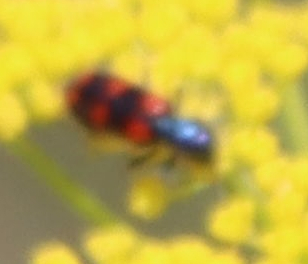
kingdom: Animalia
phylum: Arthropoda
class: Insecta
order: Coleoptera
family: Cleridae
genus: Trichodes
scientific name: Trichodes nutalli
